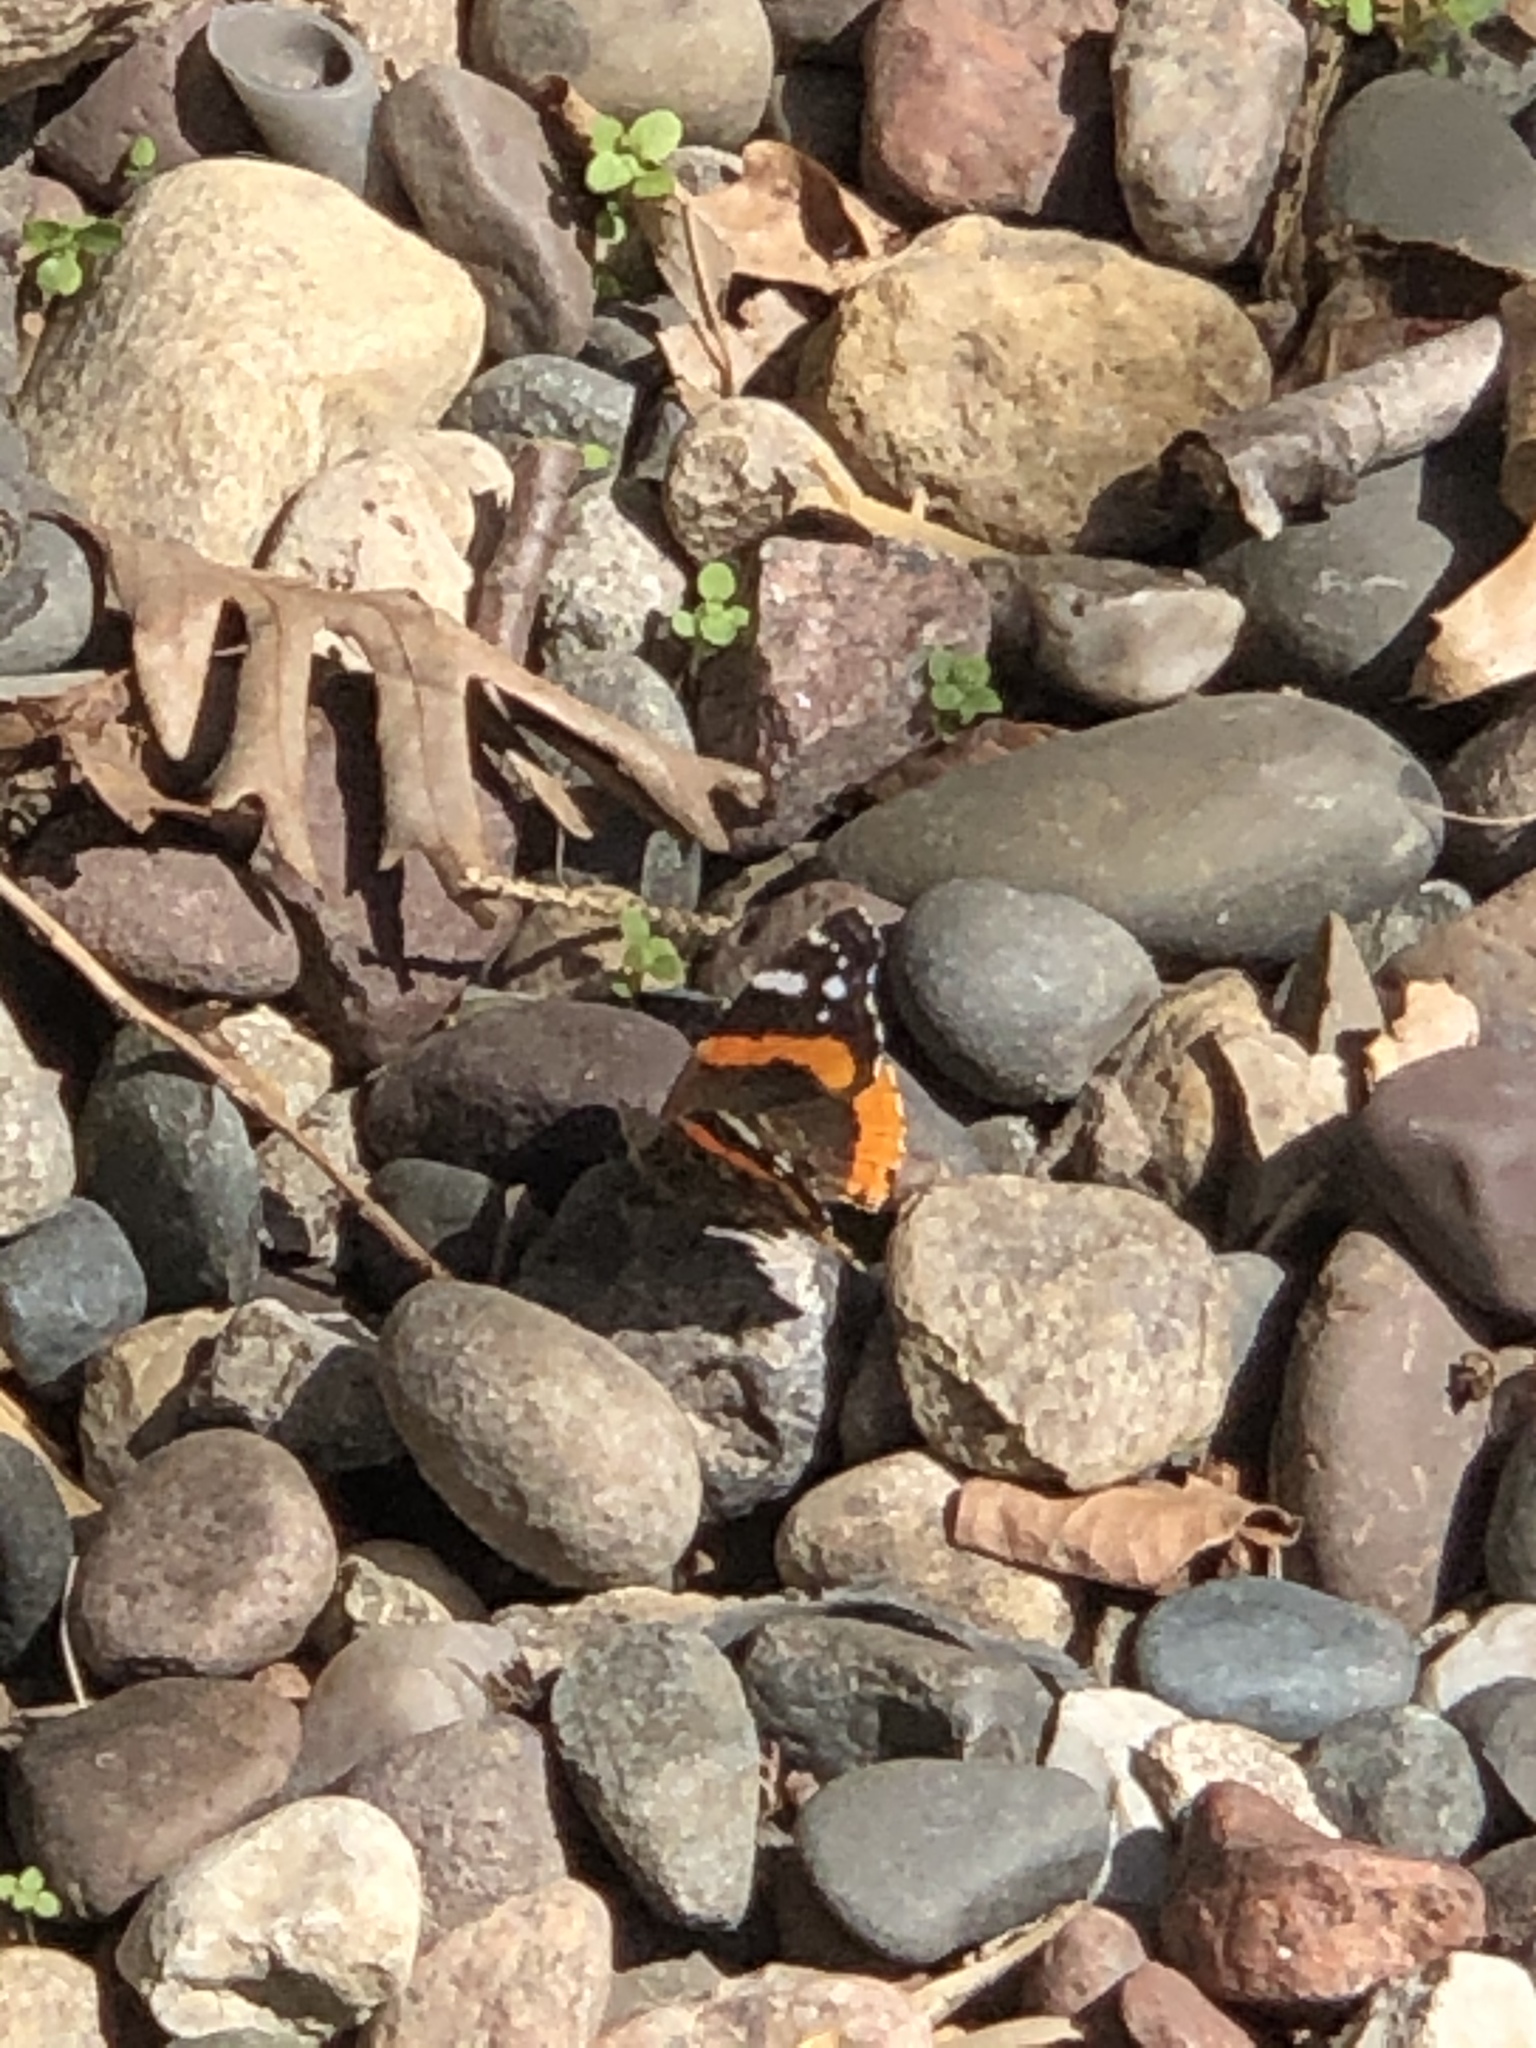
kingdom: Animalia
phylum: Arthropoda
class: Insecta
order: Lepidoptera
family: Nymphalidae
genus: Vanessa
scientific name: Vanessa atalanta
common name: Red admiral
